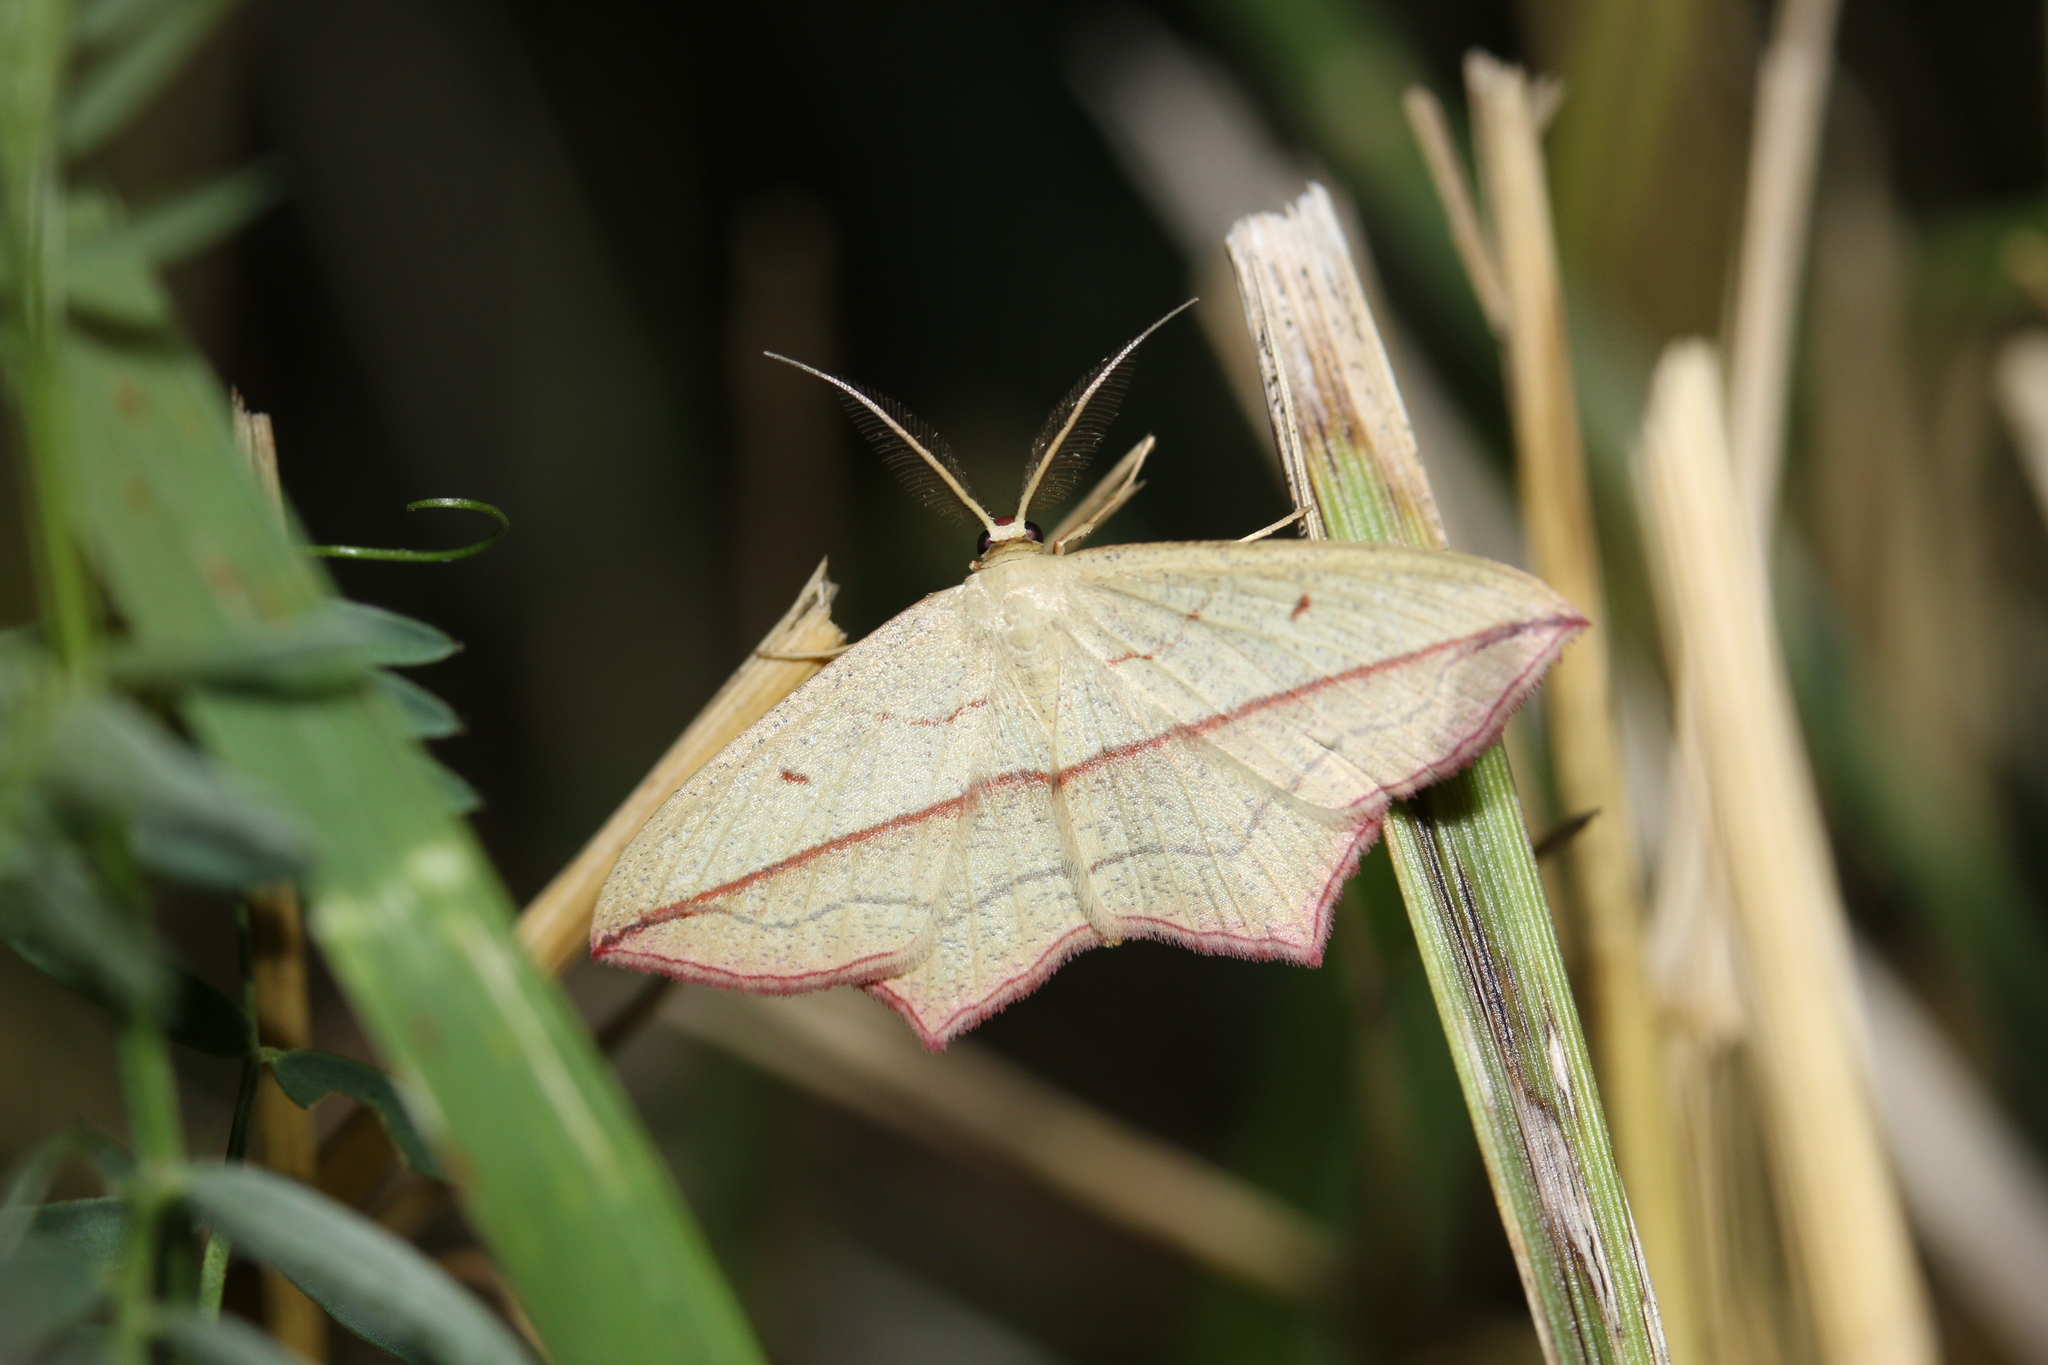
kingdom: Animalia
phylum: Arthropoda
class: Insecta
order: Lepidoptera
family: Geometridae
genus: Timandra
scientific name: Timandra comae
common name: Blood-vein
